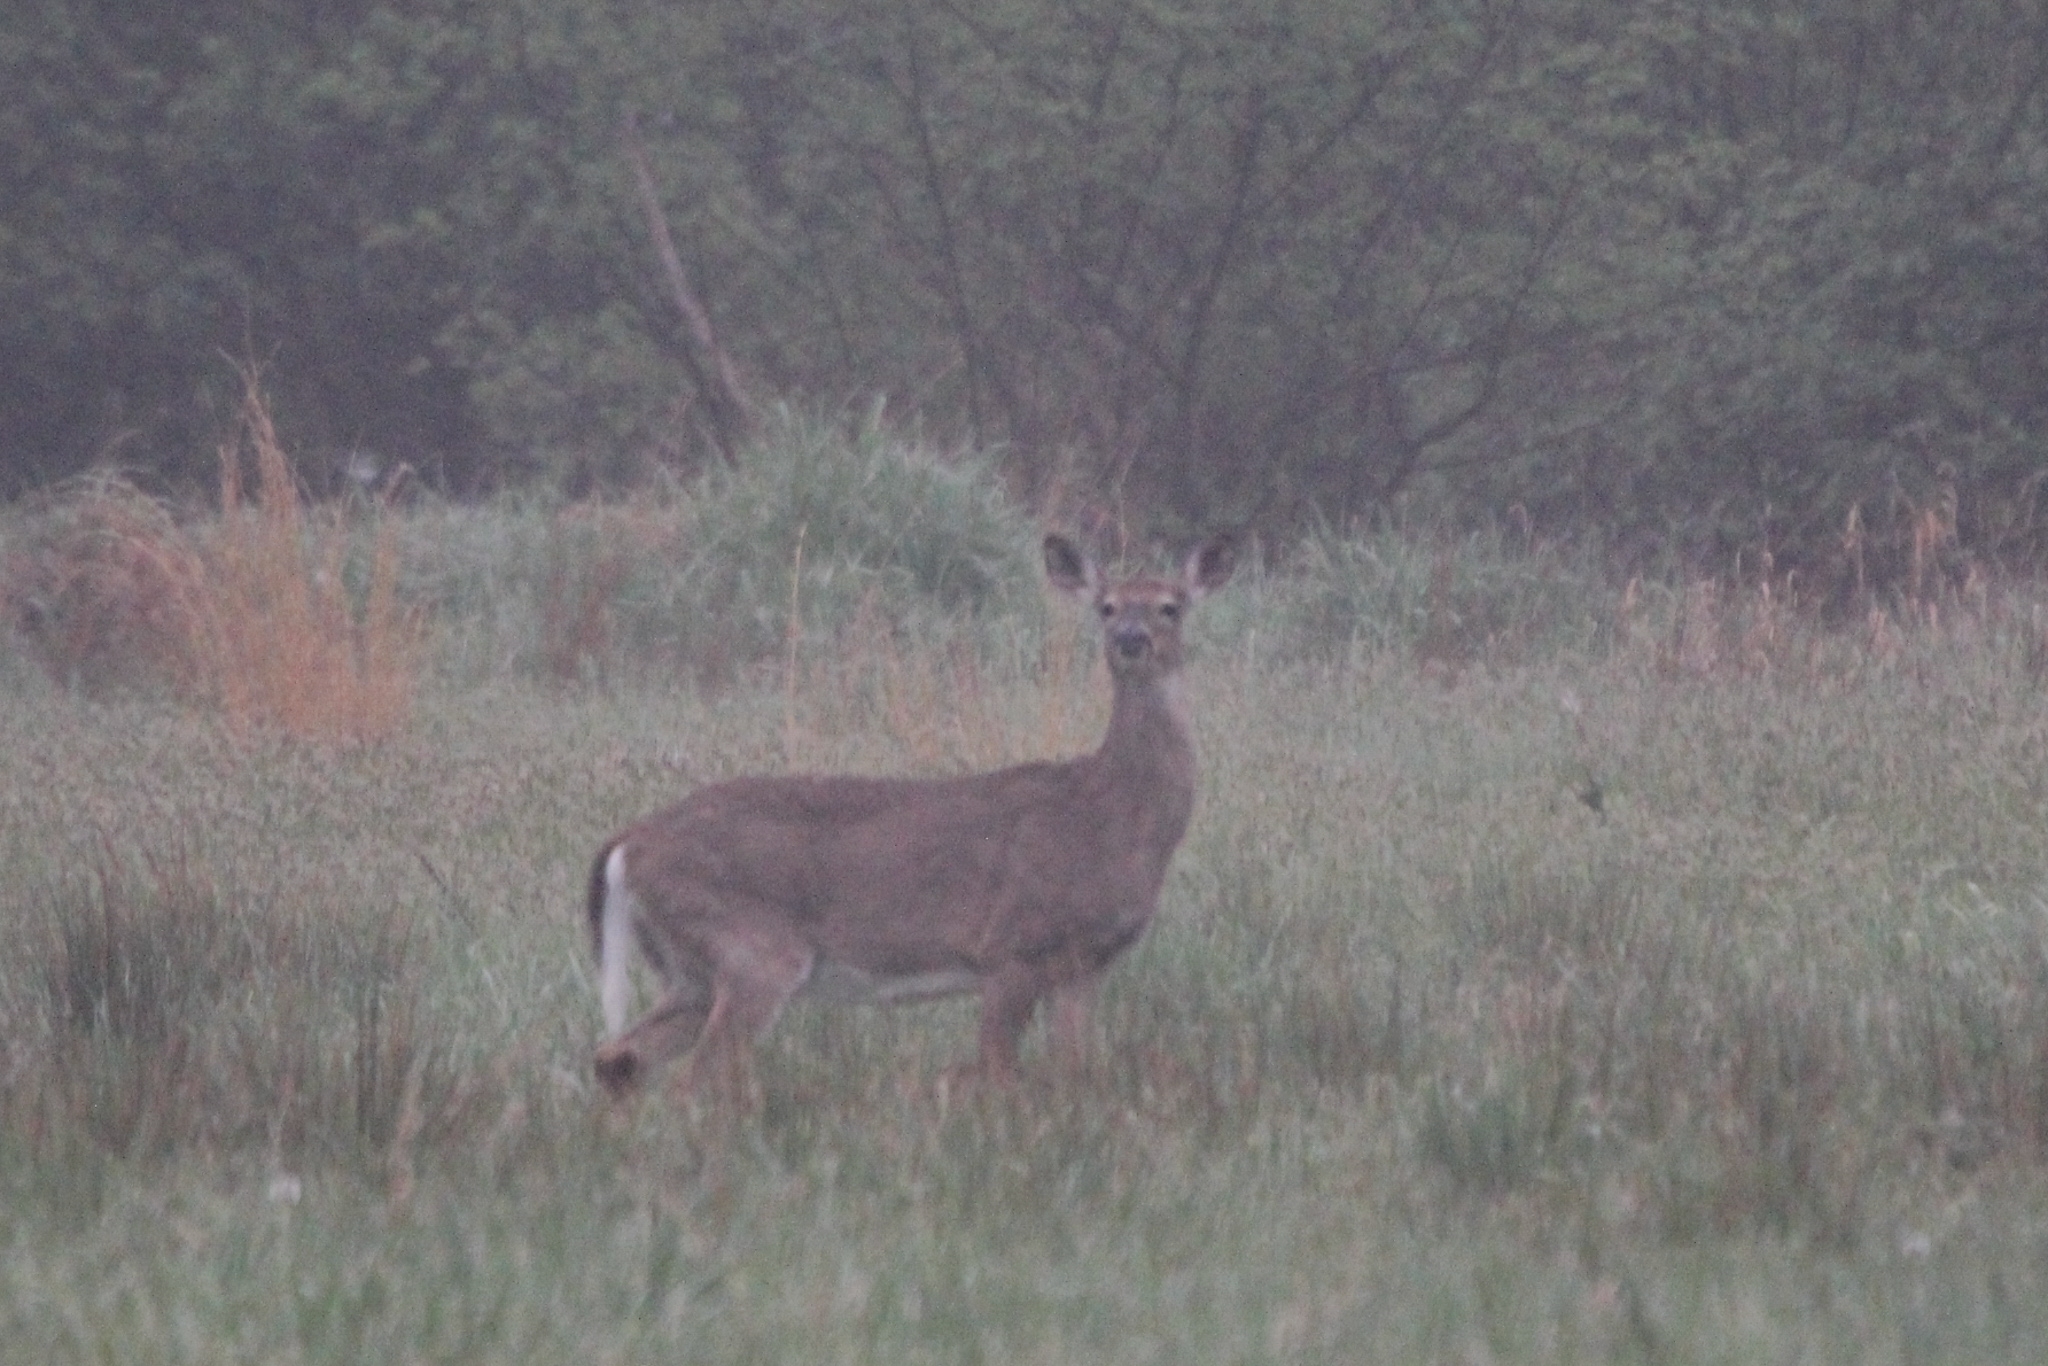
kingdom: Animalia
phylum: Chordata
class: Mammalia
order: Artiodactyla
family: Cervidae
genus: Odocoileus
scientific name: Odocoileus virginianus
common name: White-tailed deer
